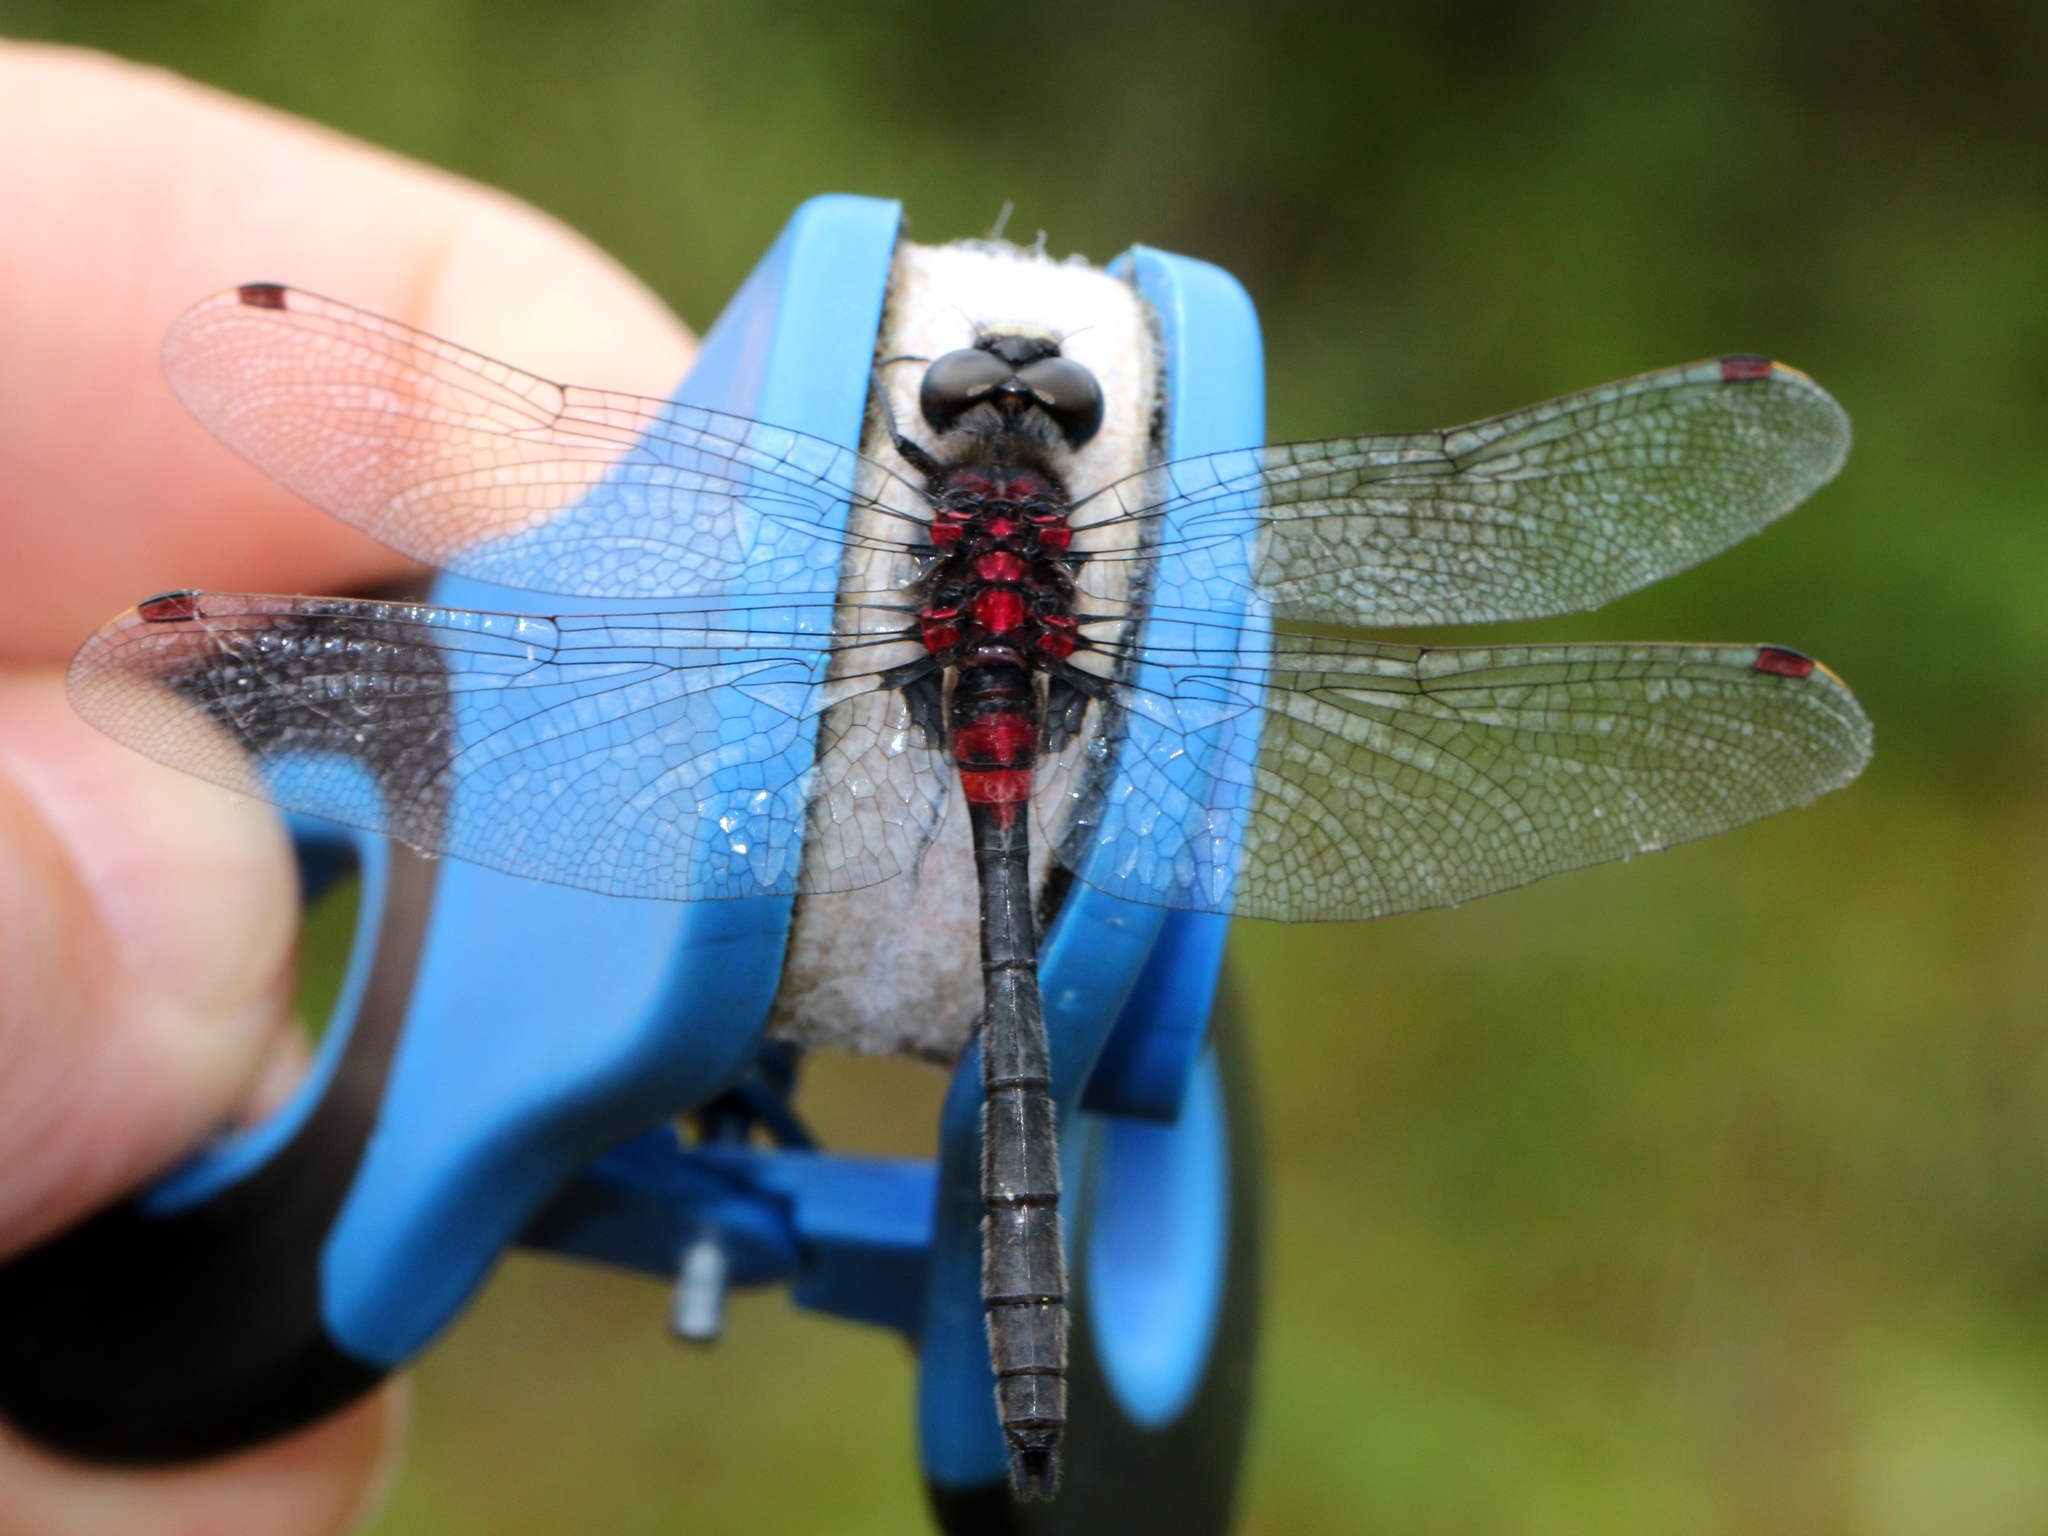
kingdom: Animalia
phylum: Arthropoda
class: Insecta
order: Odonata
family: Libellulidae
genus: Leucorrhinia
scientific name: Leucorrhinia glacialis
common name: Crimson-ringed whiteface
